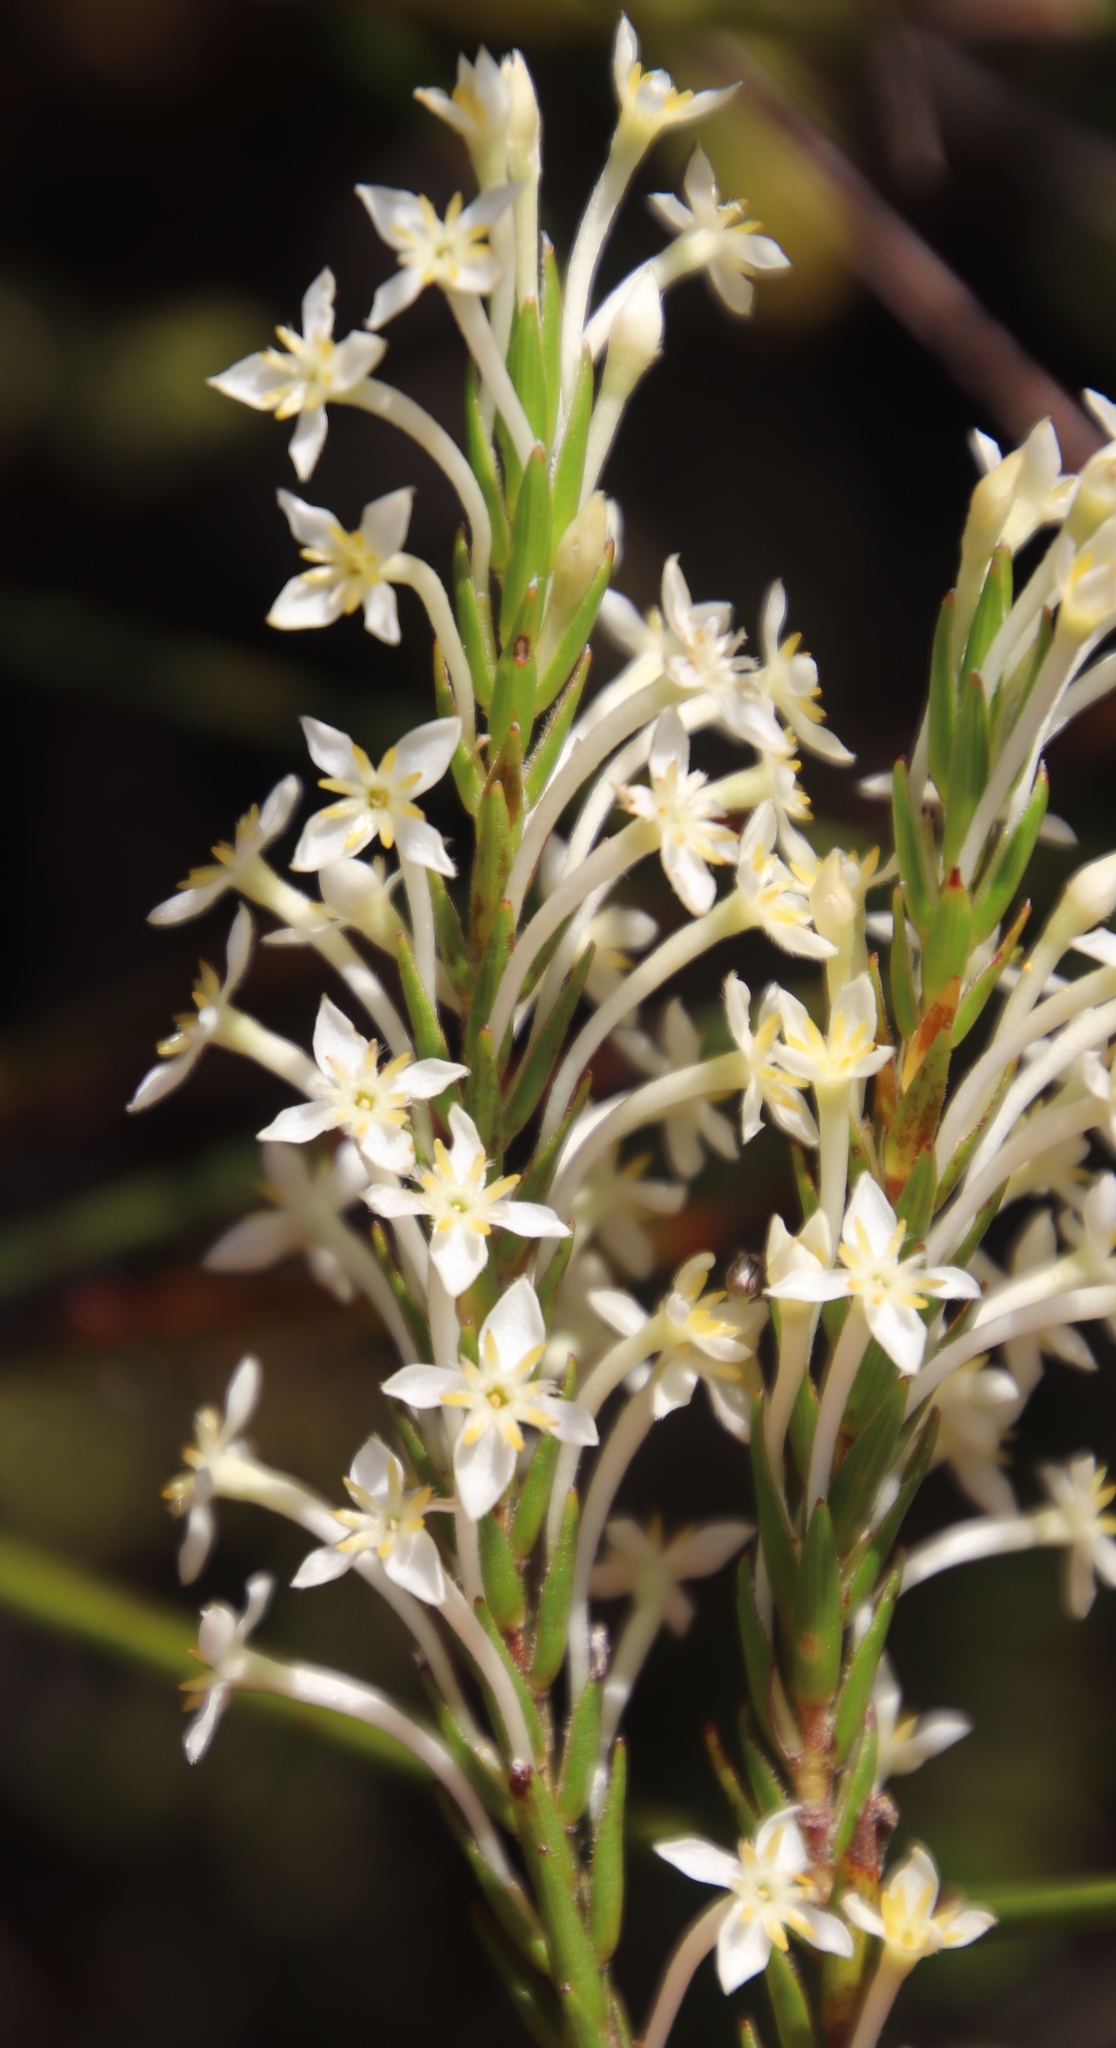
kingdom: Plantae
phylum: Tracheophyta
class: Magnoliopsida
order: Malvales
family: Thymelaeaceae
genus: Struthiola
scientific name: Struthiola ciliata
